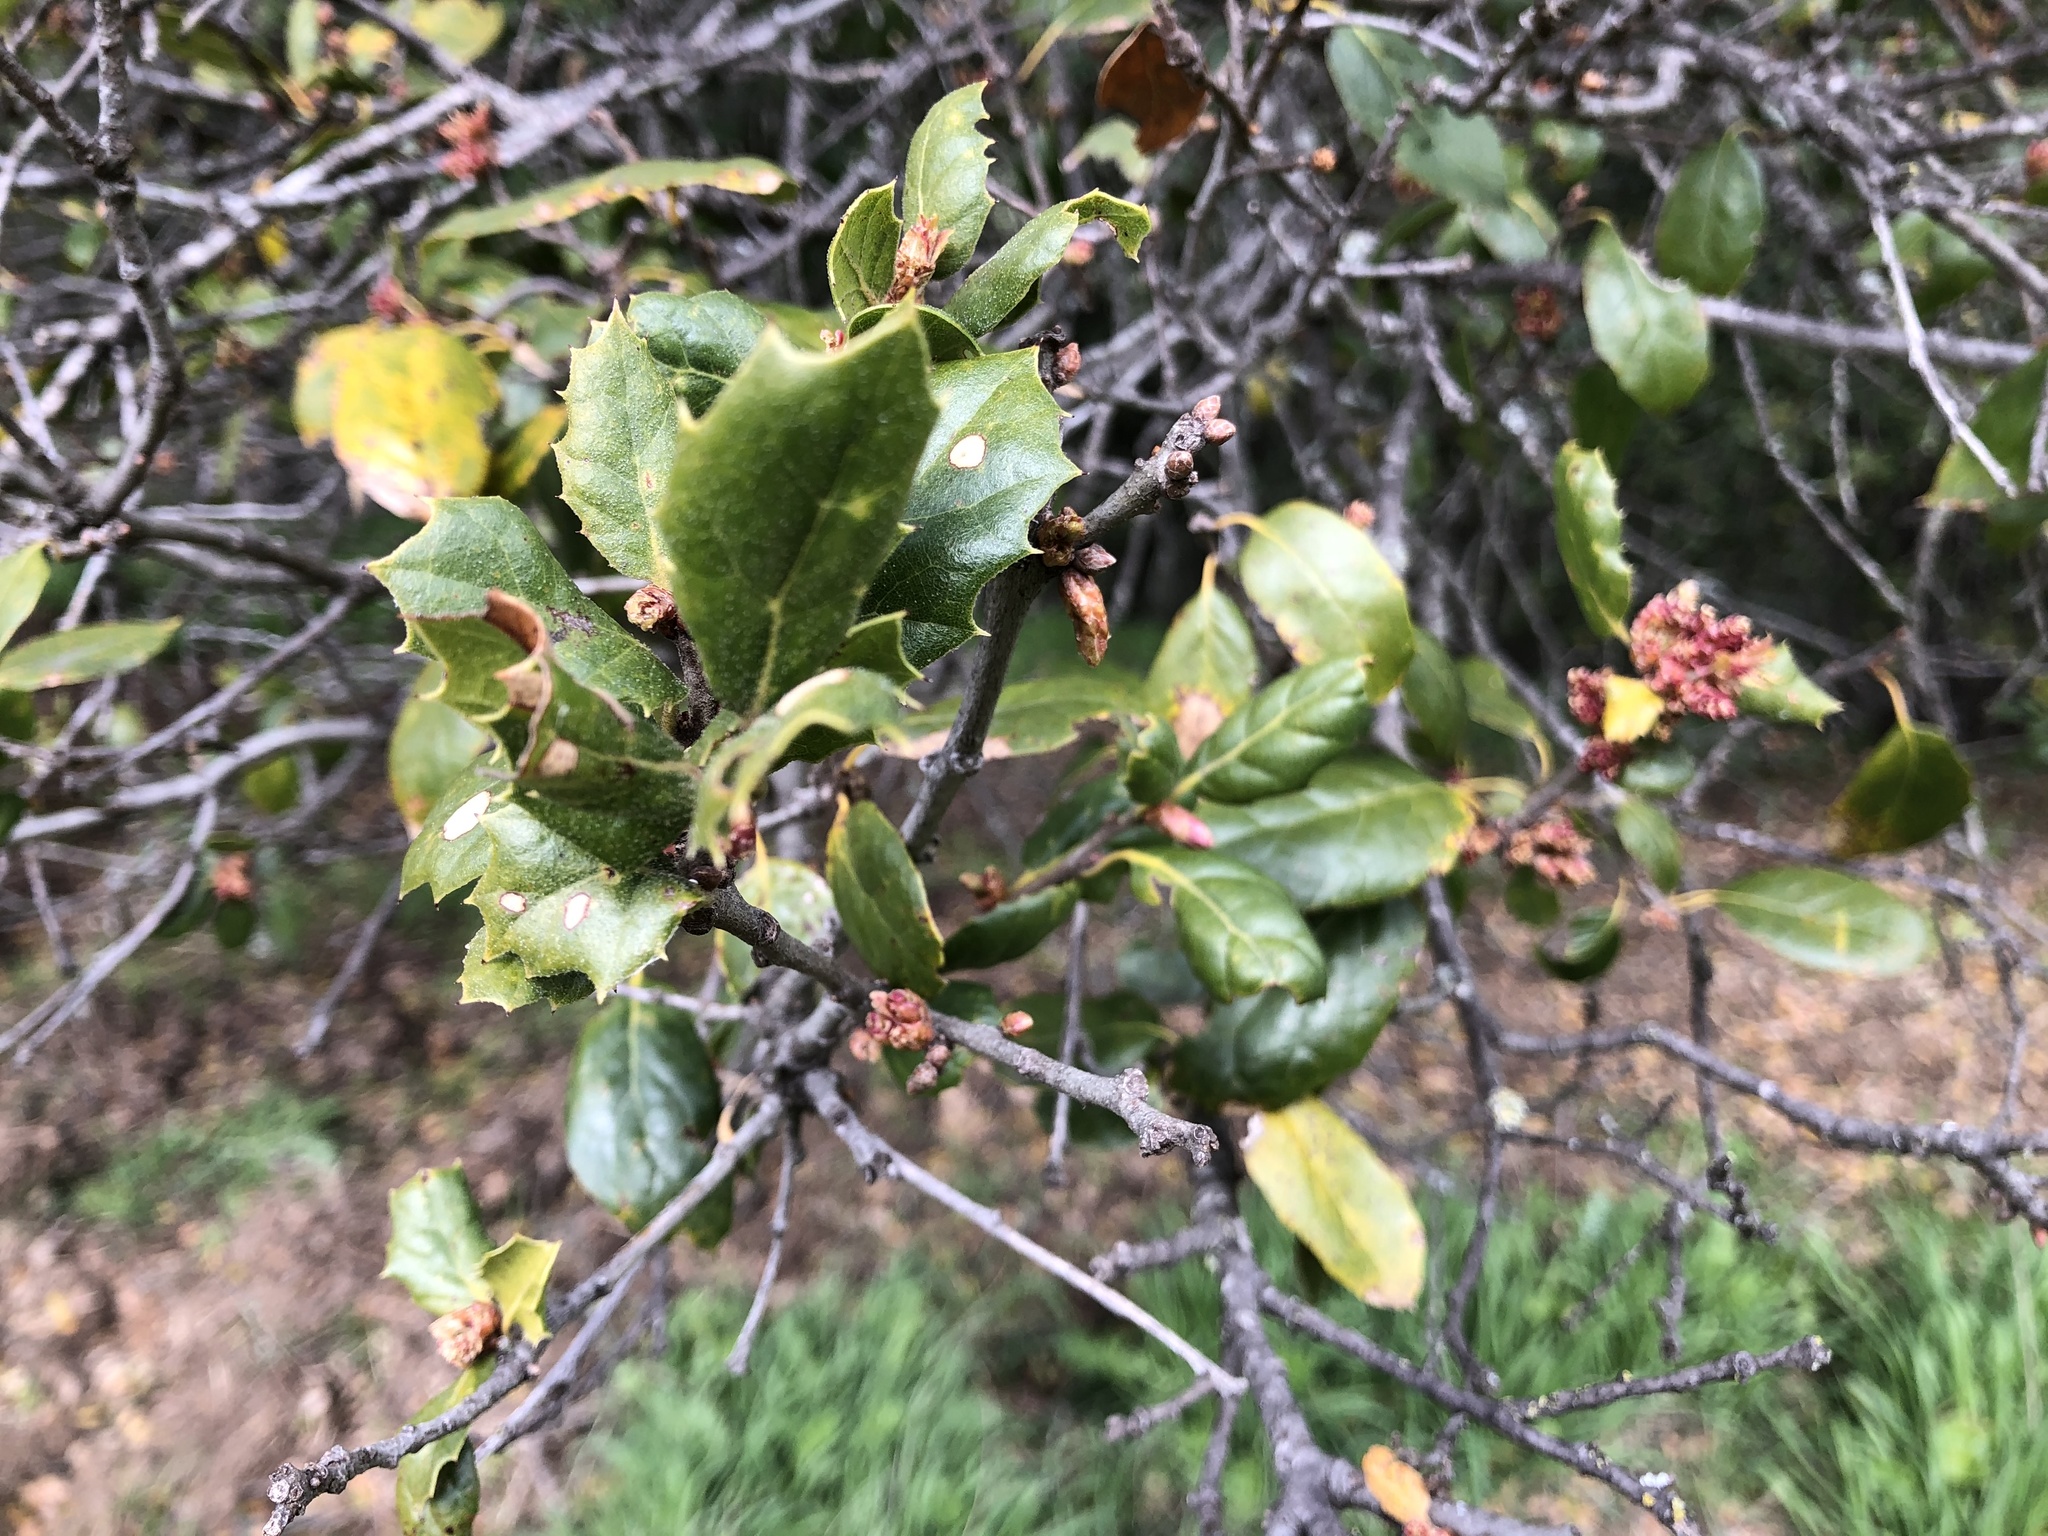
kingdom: Plantae
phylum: Tracheophyta
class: Magnoliopsida
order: Fagales
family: Fagaceae
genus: Quercus
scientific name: Quercus agrifolia
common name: California live oak
